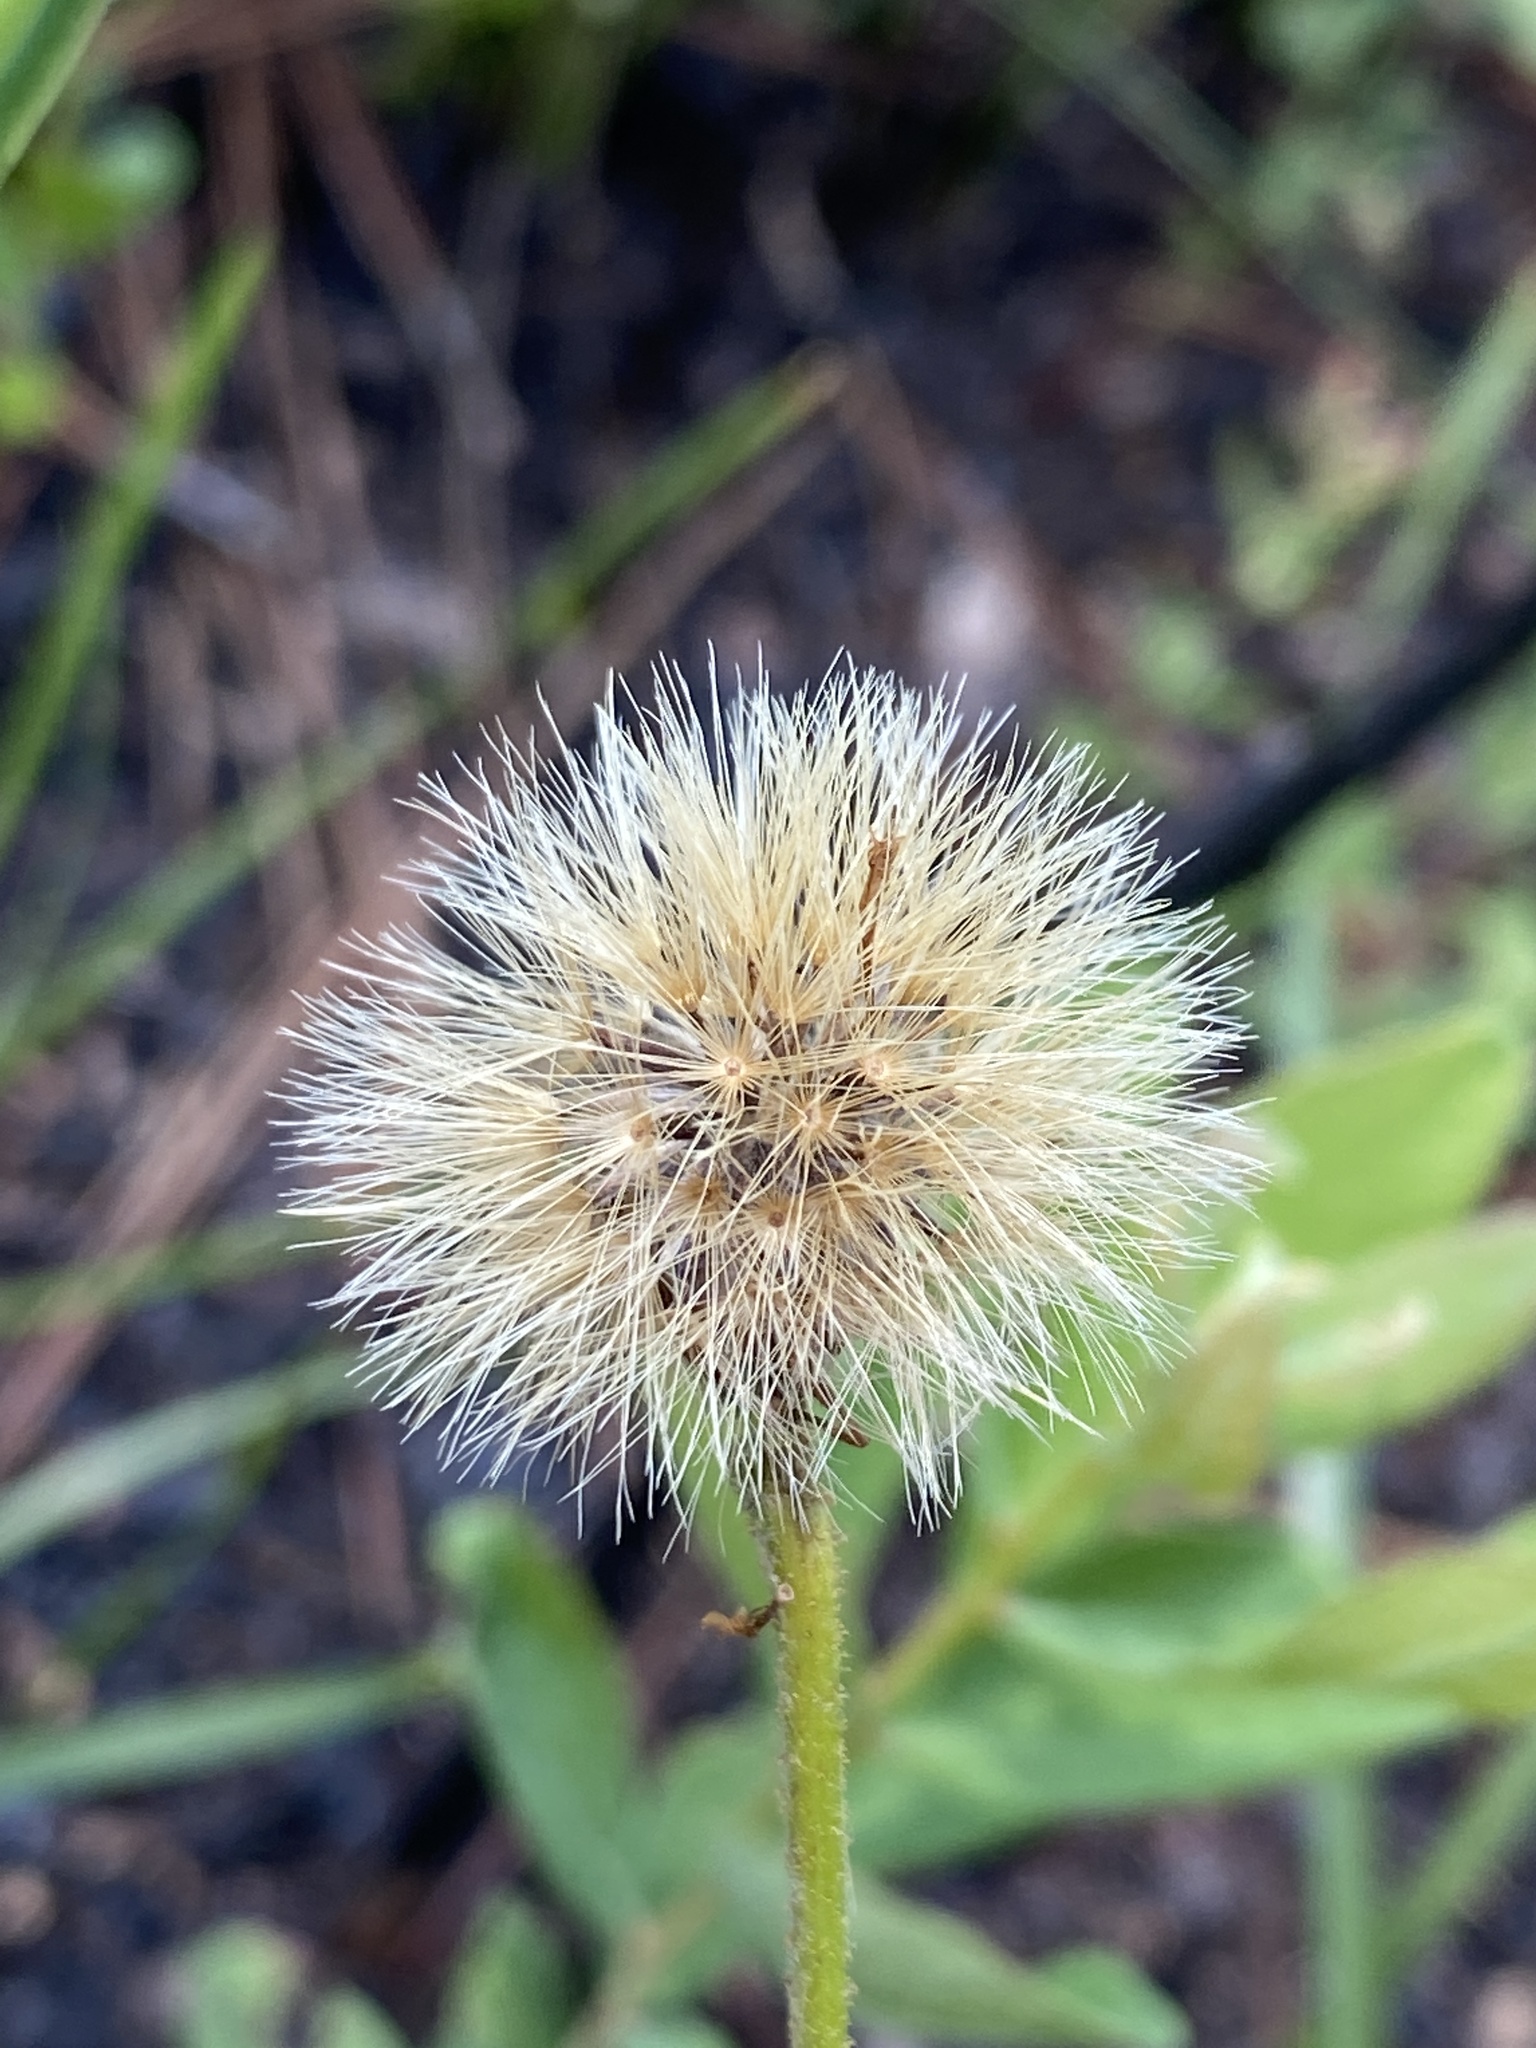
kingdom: Plantae
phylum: Tracheophyta
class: Magnoliopsida
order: Asterales
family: Asteraceae
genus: Pityopsis
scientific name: Pityopsis oligantha
